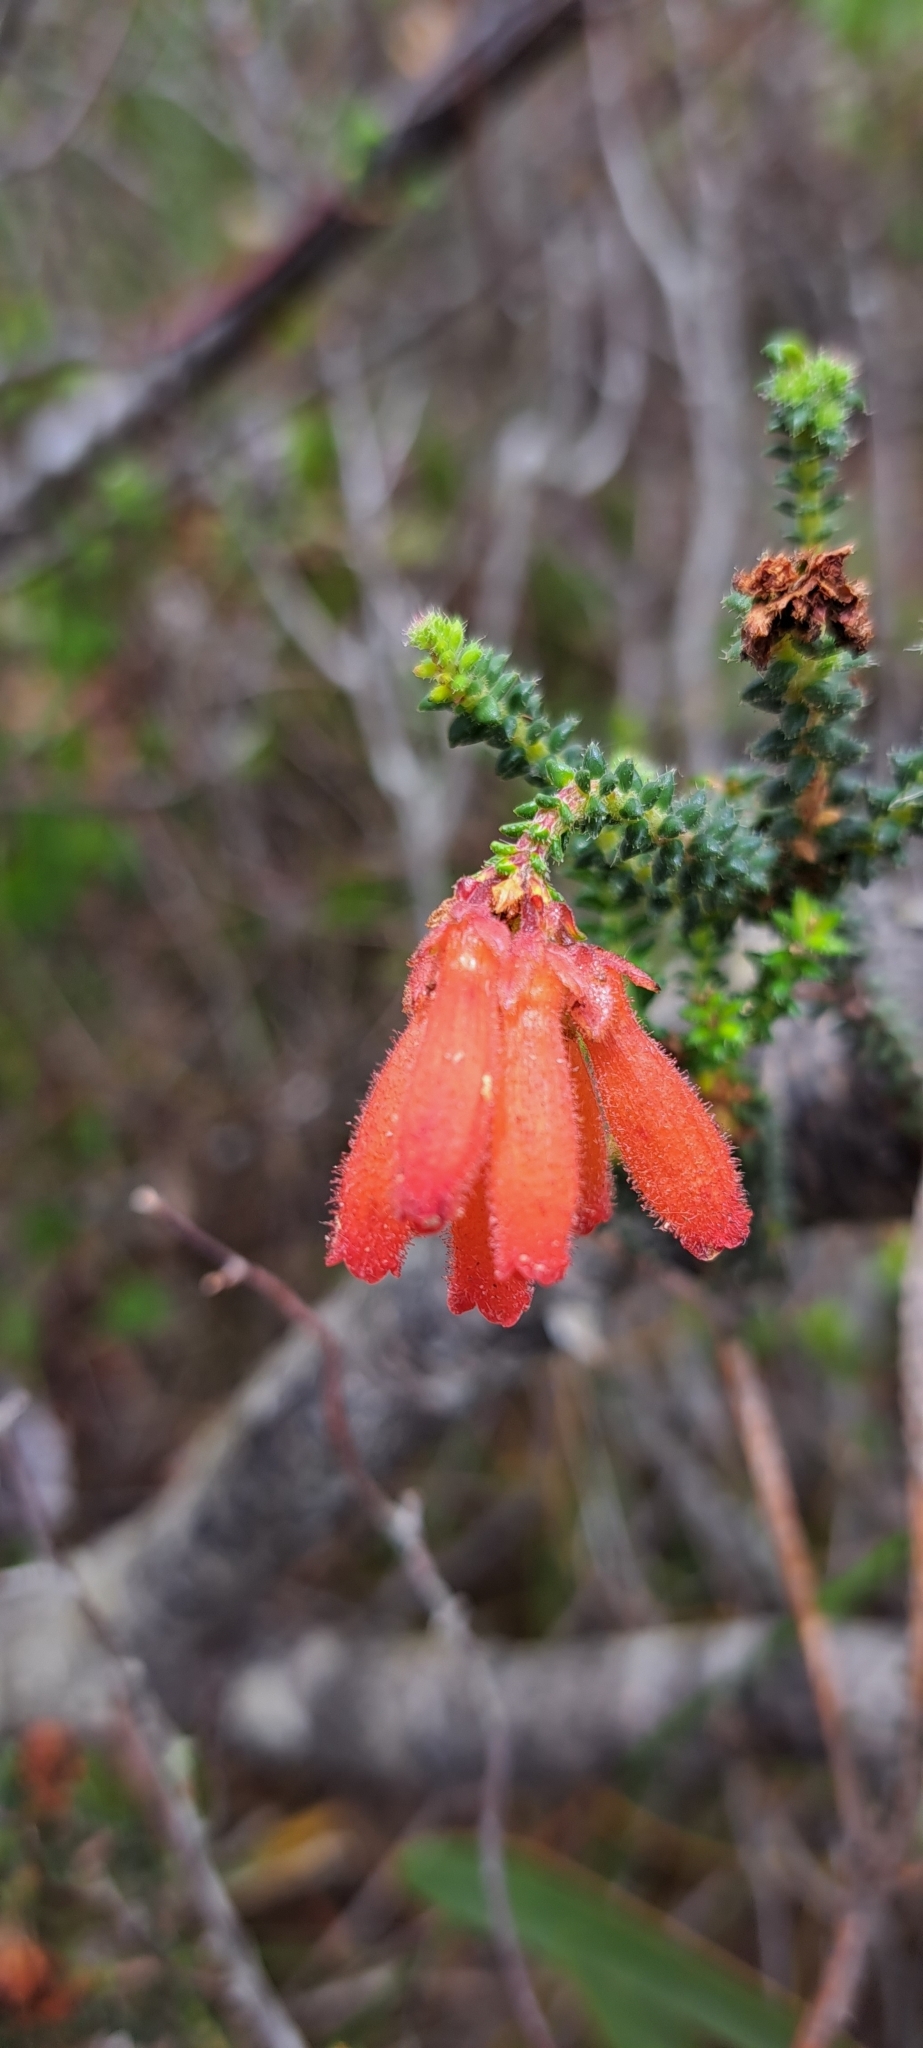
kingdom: Plantae
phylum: Tracheophyta
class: Magnoliopsida
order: Ericales
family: Ericaceae
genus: Erica
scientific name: Erica cerinthoides
